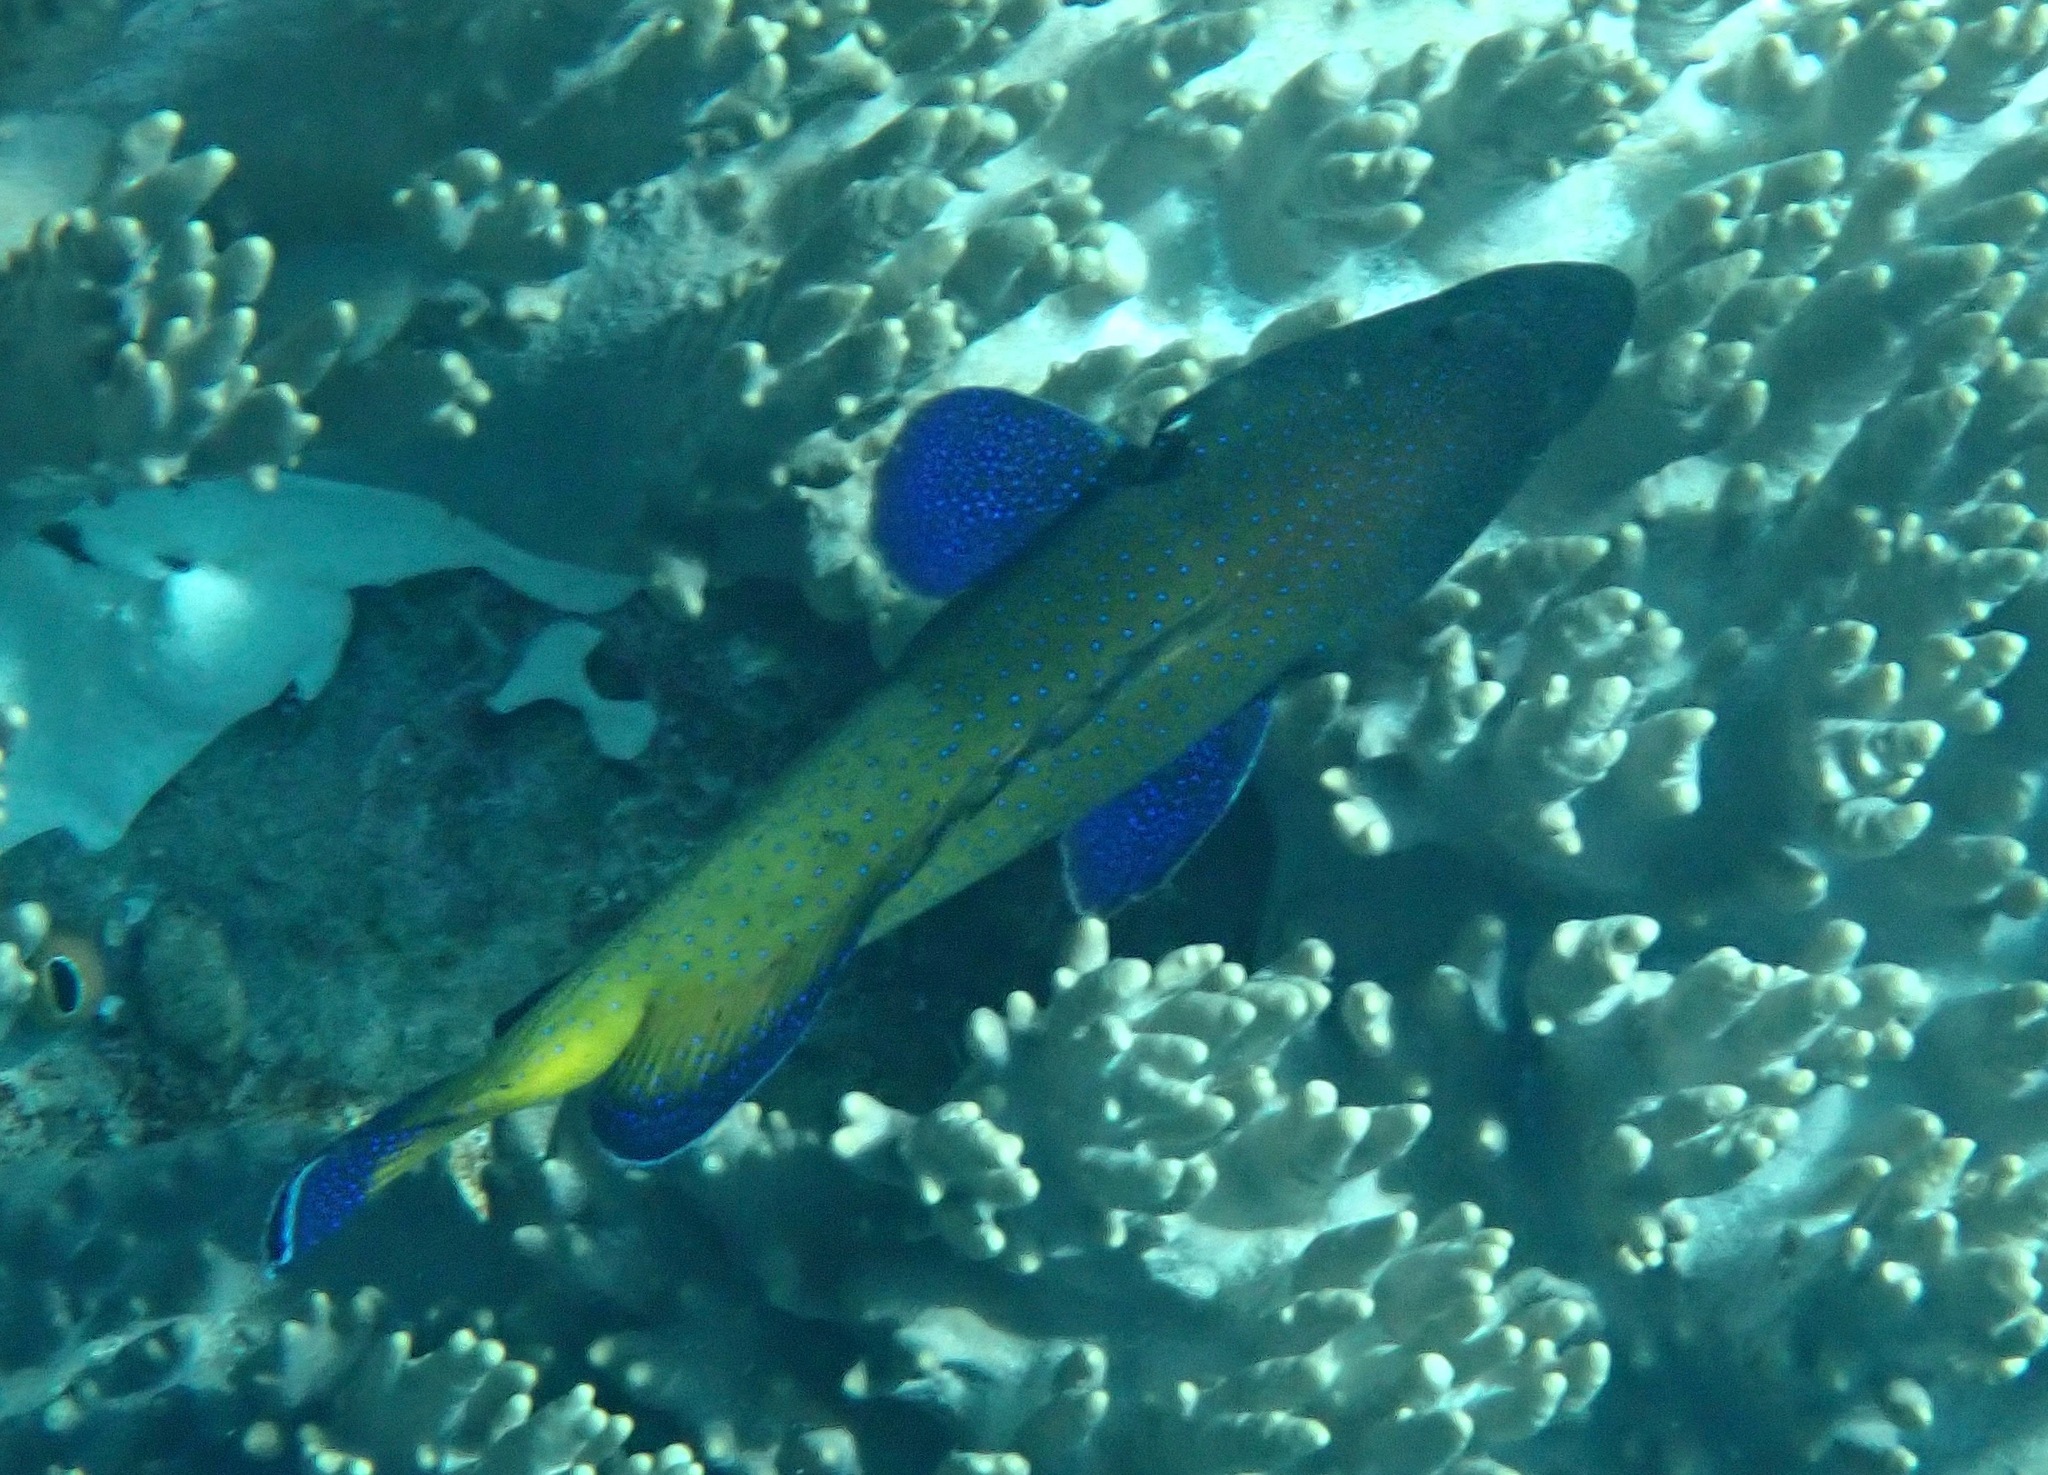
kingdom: Animalia
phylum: Chordata
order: Perciformes
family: Serranidae
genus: Cephalopholis
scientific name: Cephalopholis argus
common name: Peacock grouper
